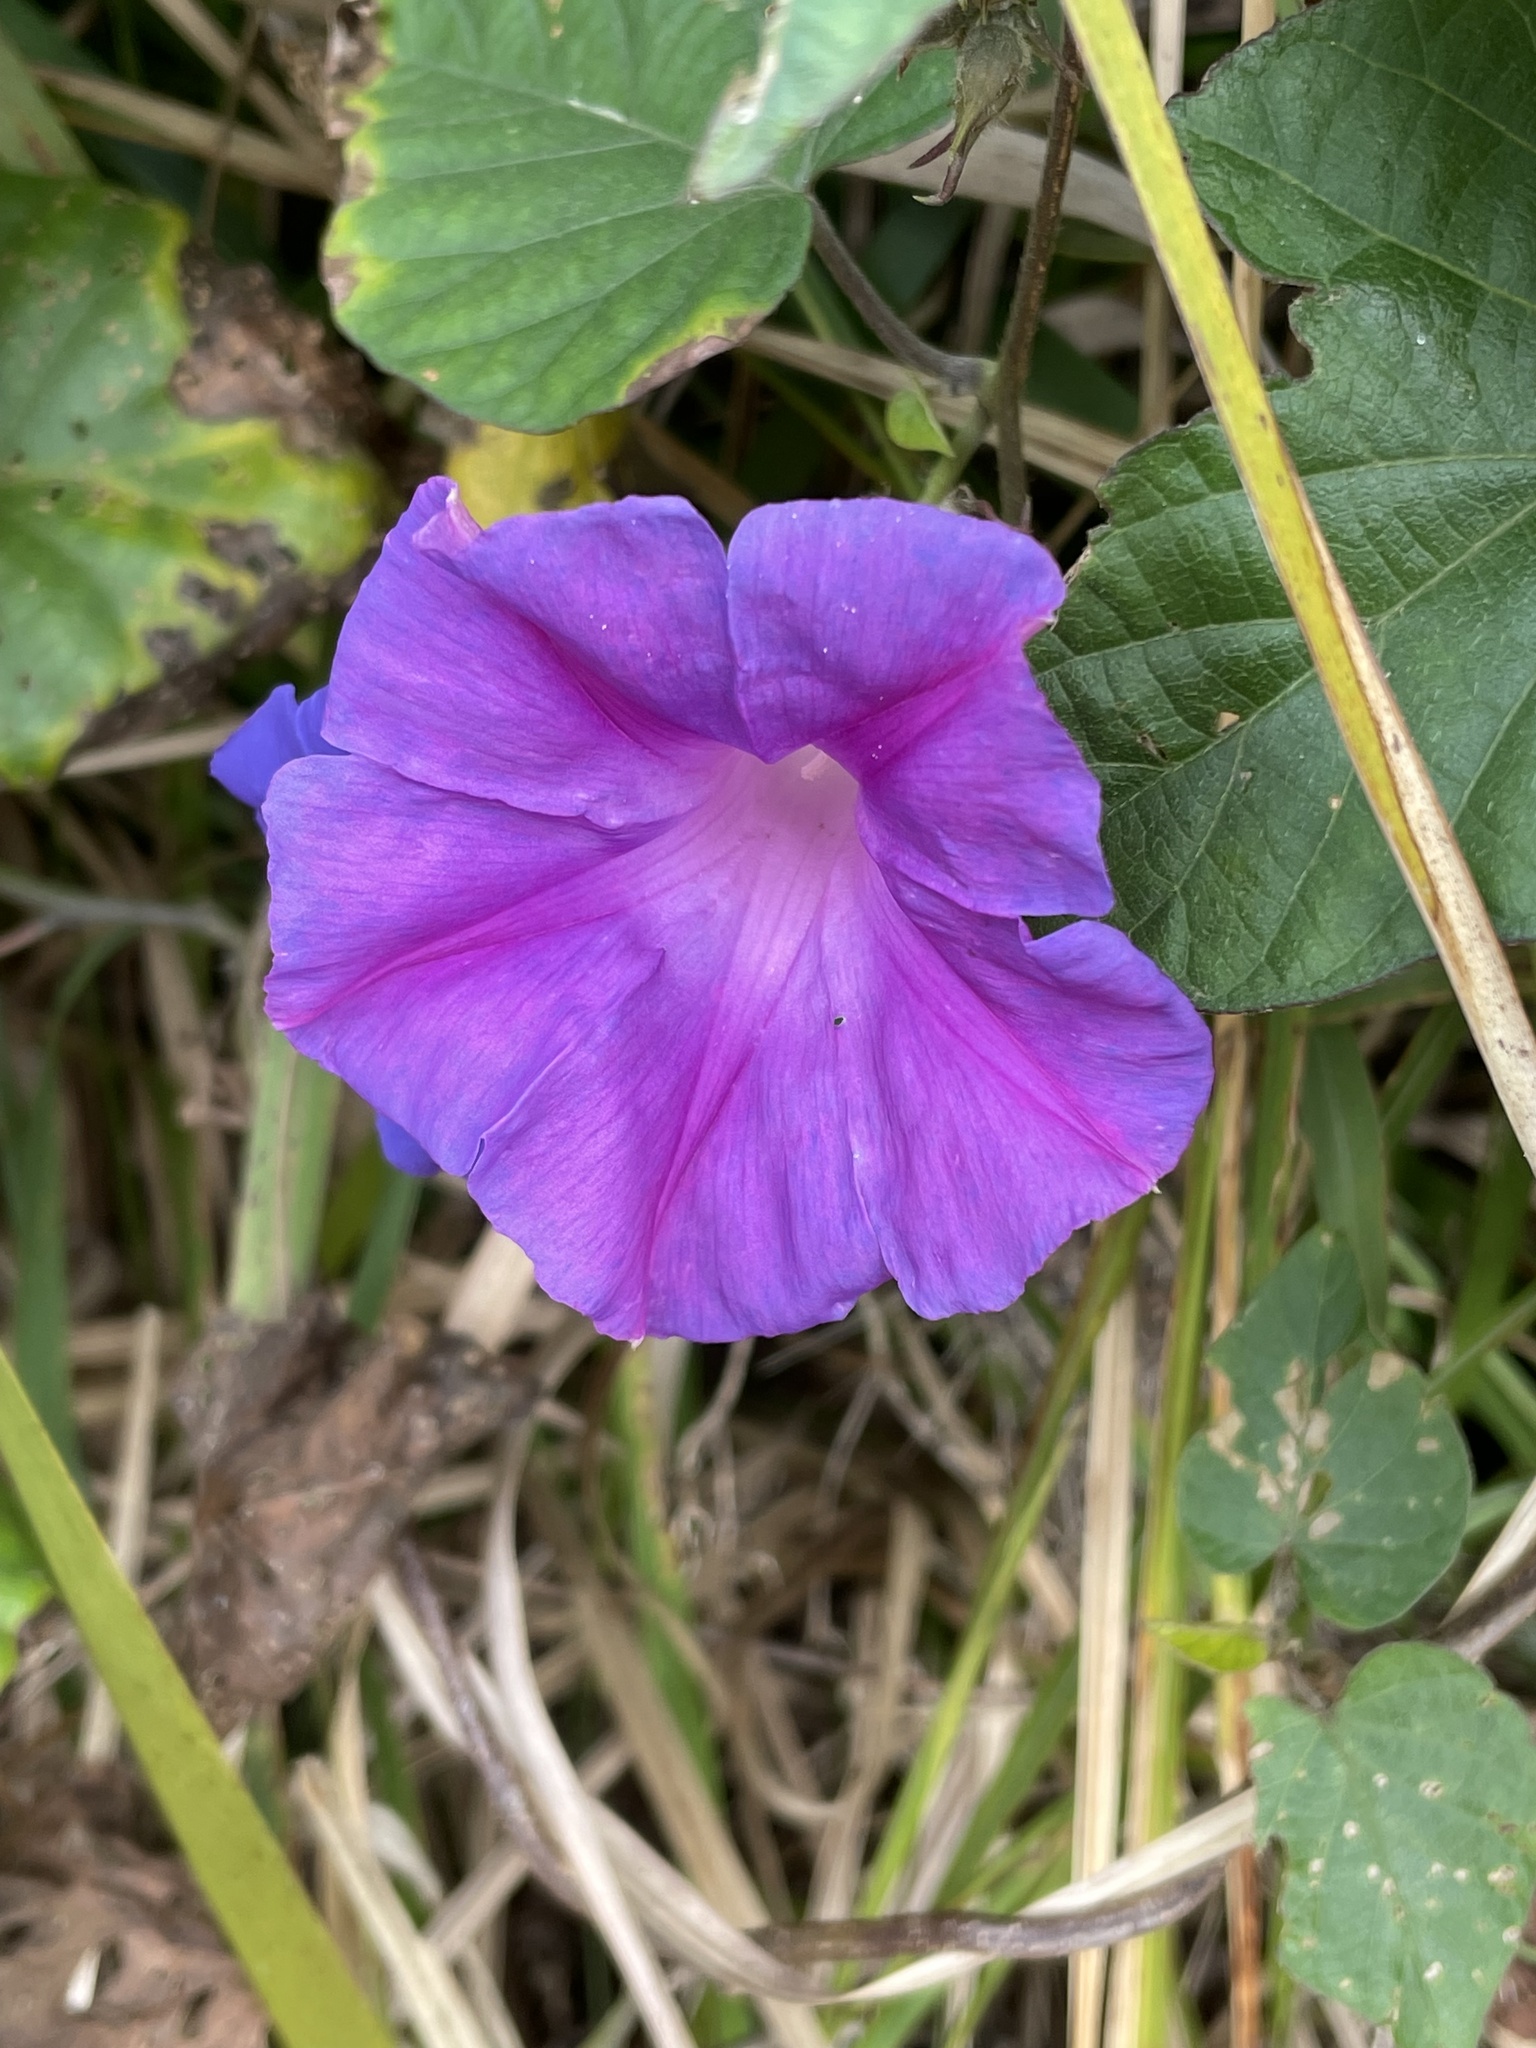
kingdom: Plantae
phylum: Tracheophyta
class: Magnoliopsida
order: Solanales
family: Convolvulaceae
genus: Ipomoea
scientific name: Ipomoea indica
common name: Blue dawnflower
